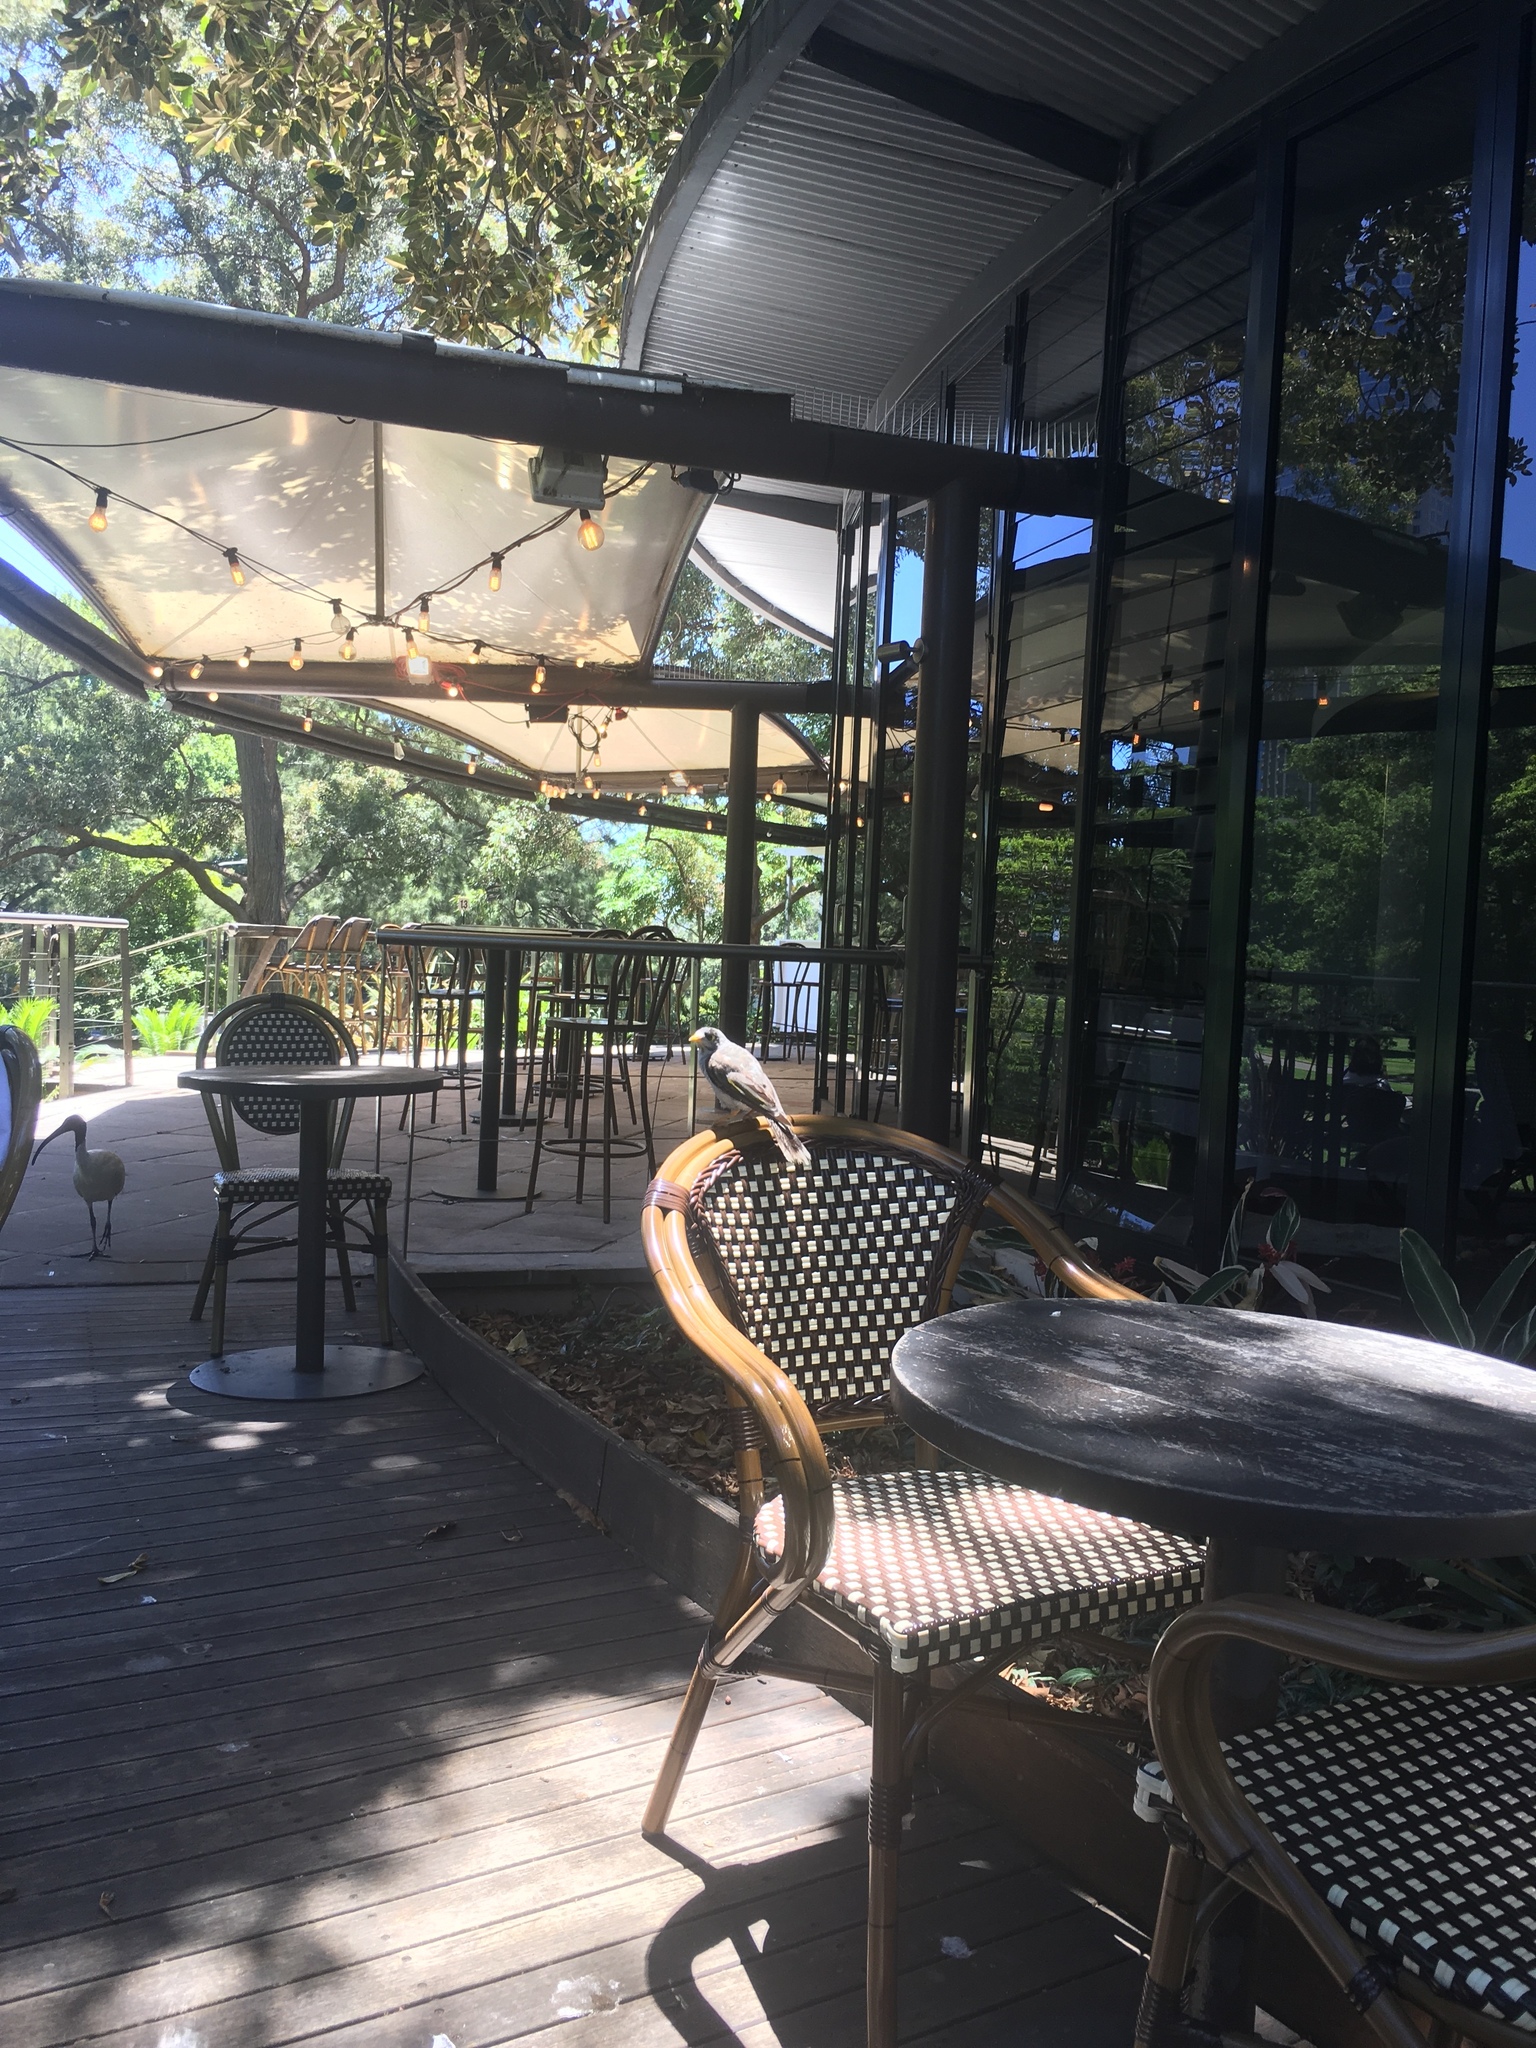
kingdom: Animalia
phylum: Chordata
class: Aves
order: Passeriformes
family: Meliphagidae
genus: Manorina
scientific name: Manorina melanocephala
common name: Noisy miner
